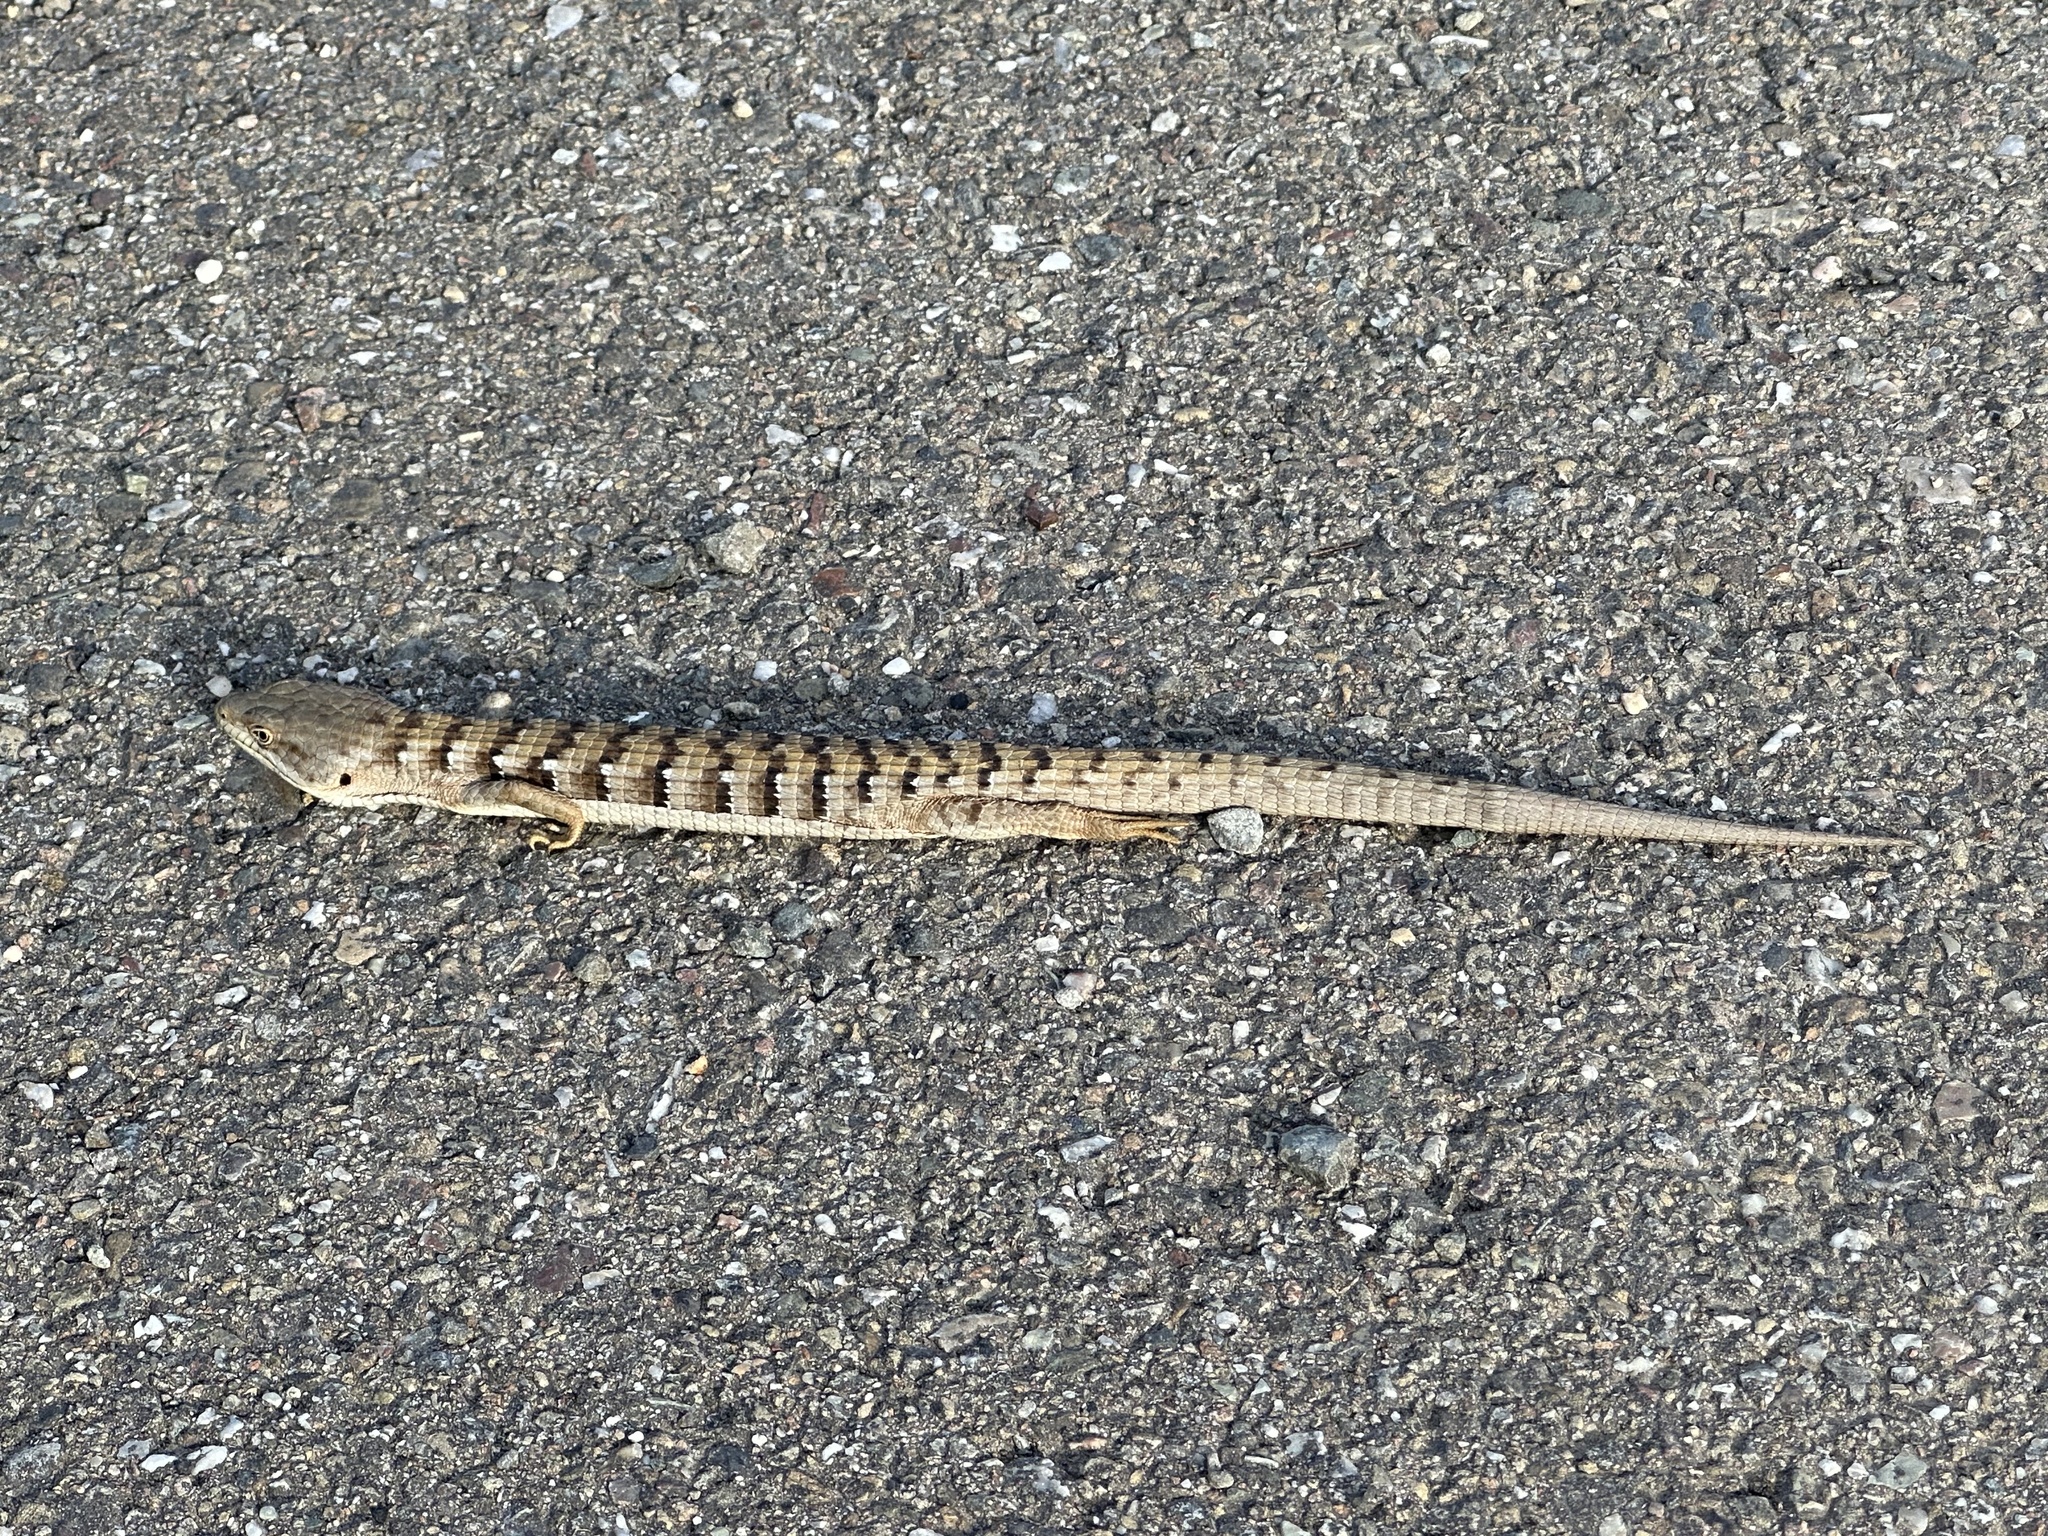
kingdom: Animalia
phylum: Chordata
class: Squamata
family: Anguidae
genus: Elgaria
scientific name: Elgaria multicarinata
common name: Southern alligator lizard
